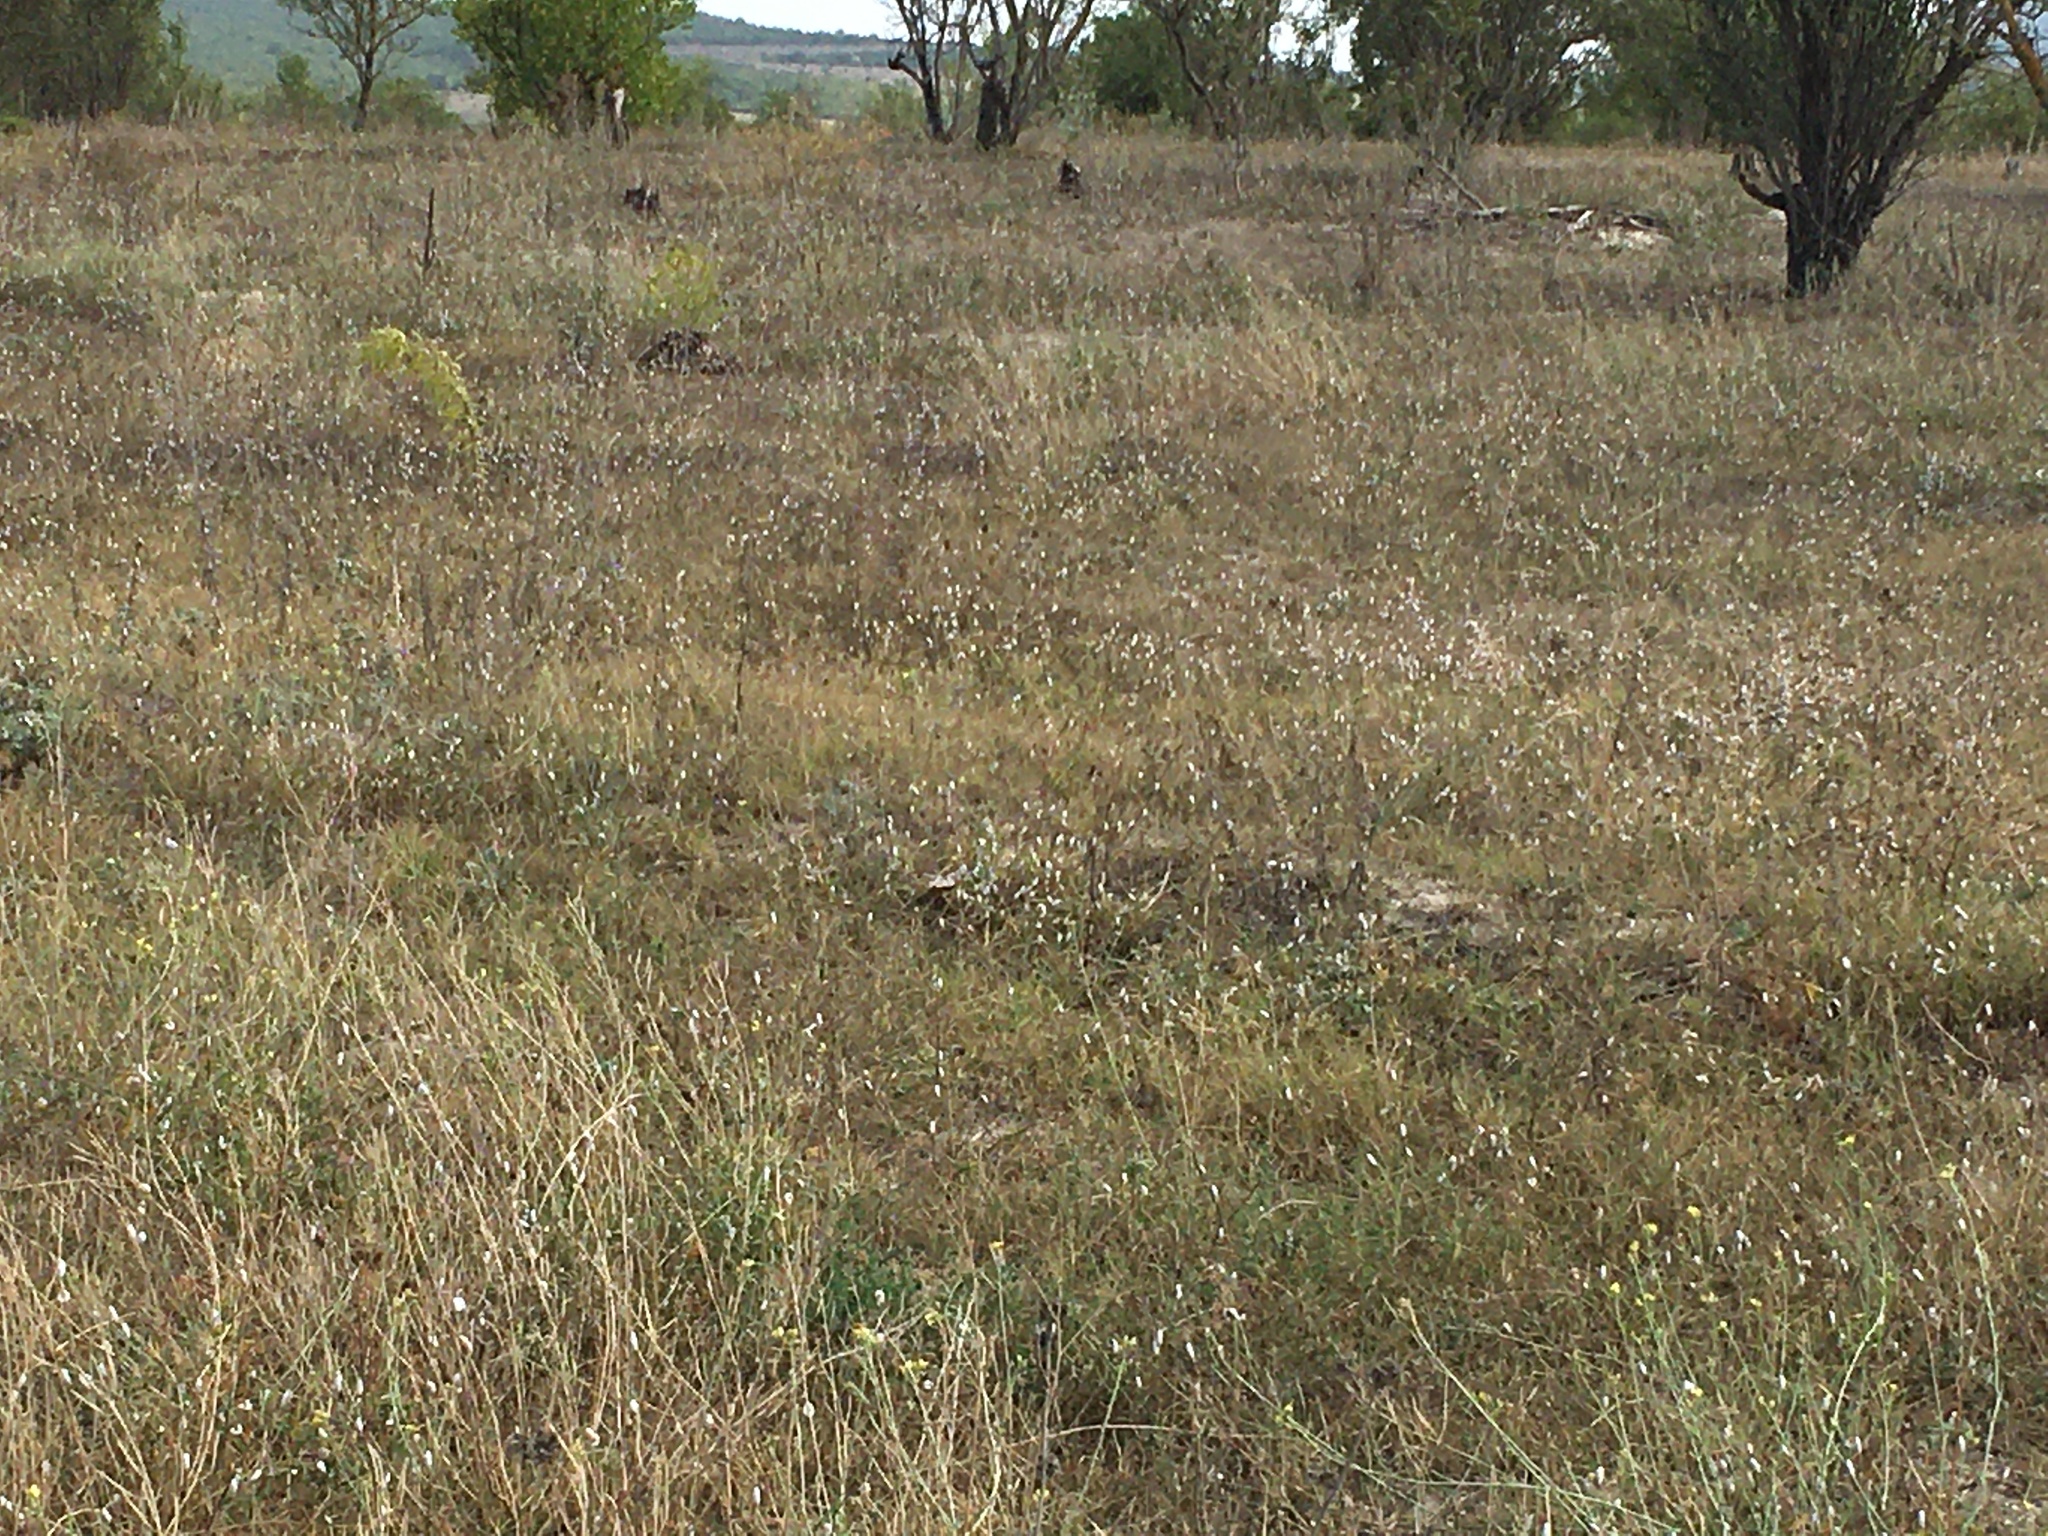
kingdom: Animalia
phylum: Mollusca
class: Gastropoda
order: Stylommatophora
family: Enidae
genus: Brephulopsis
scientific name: Brephulopsis cylindrica
